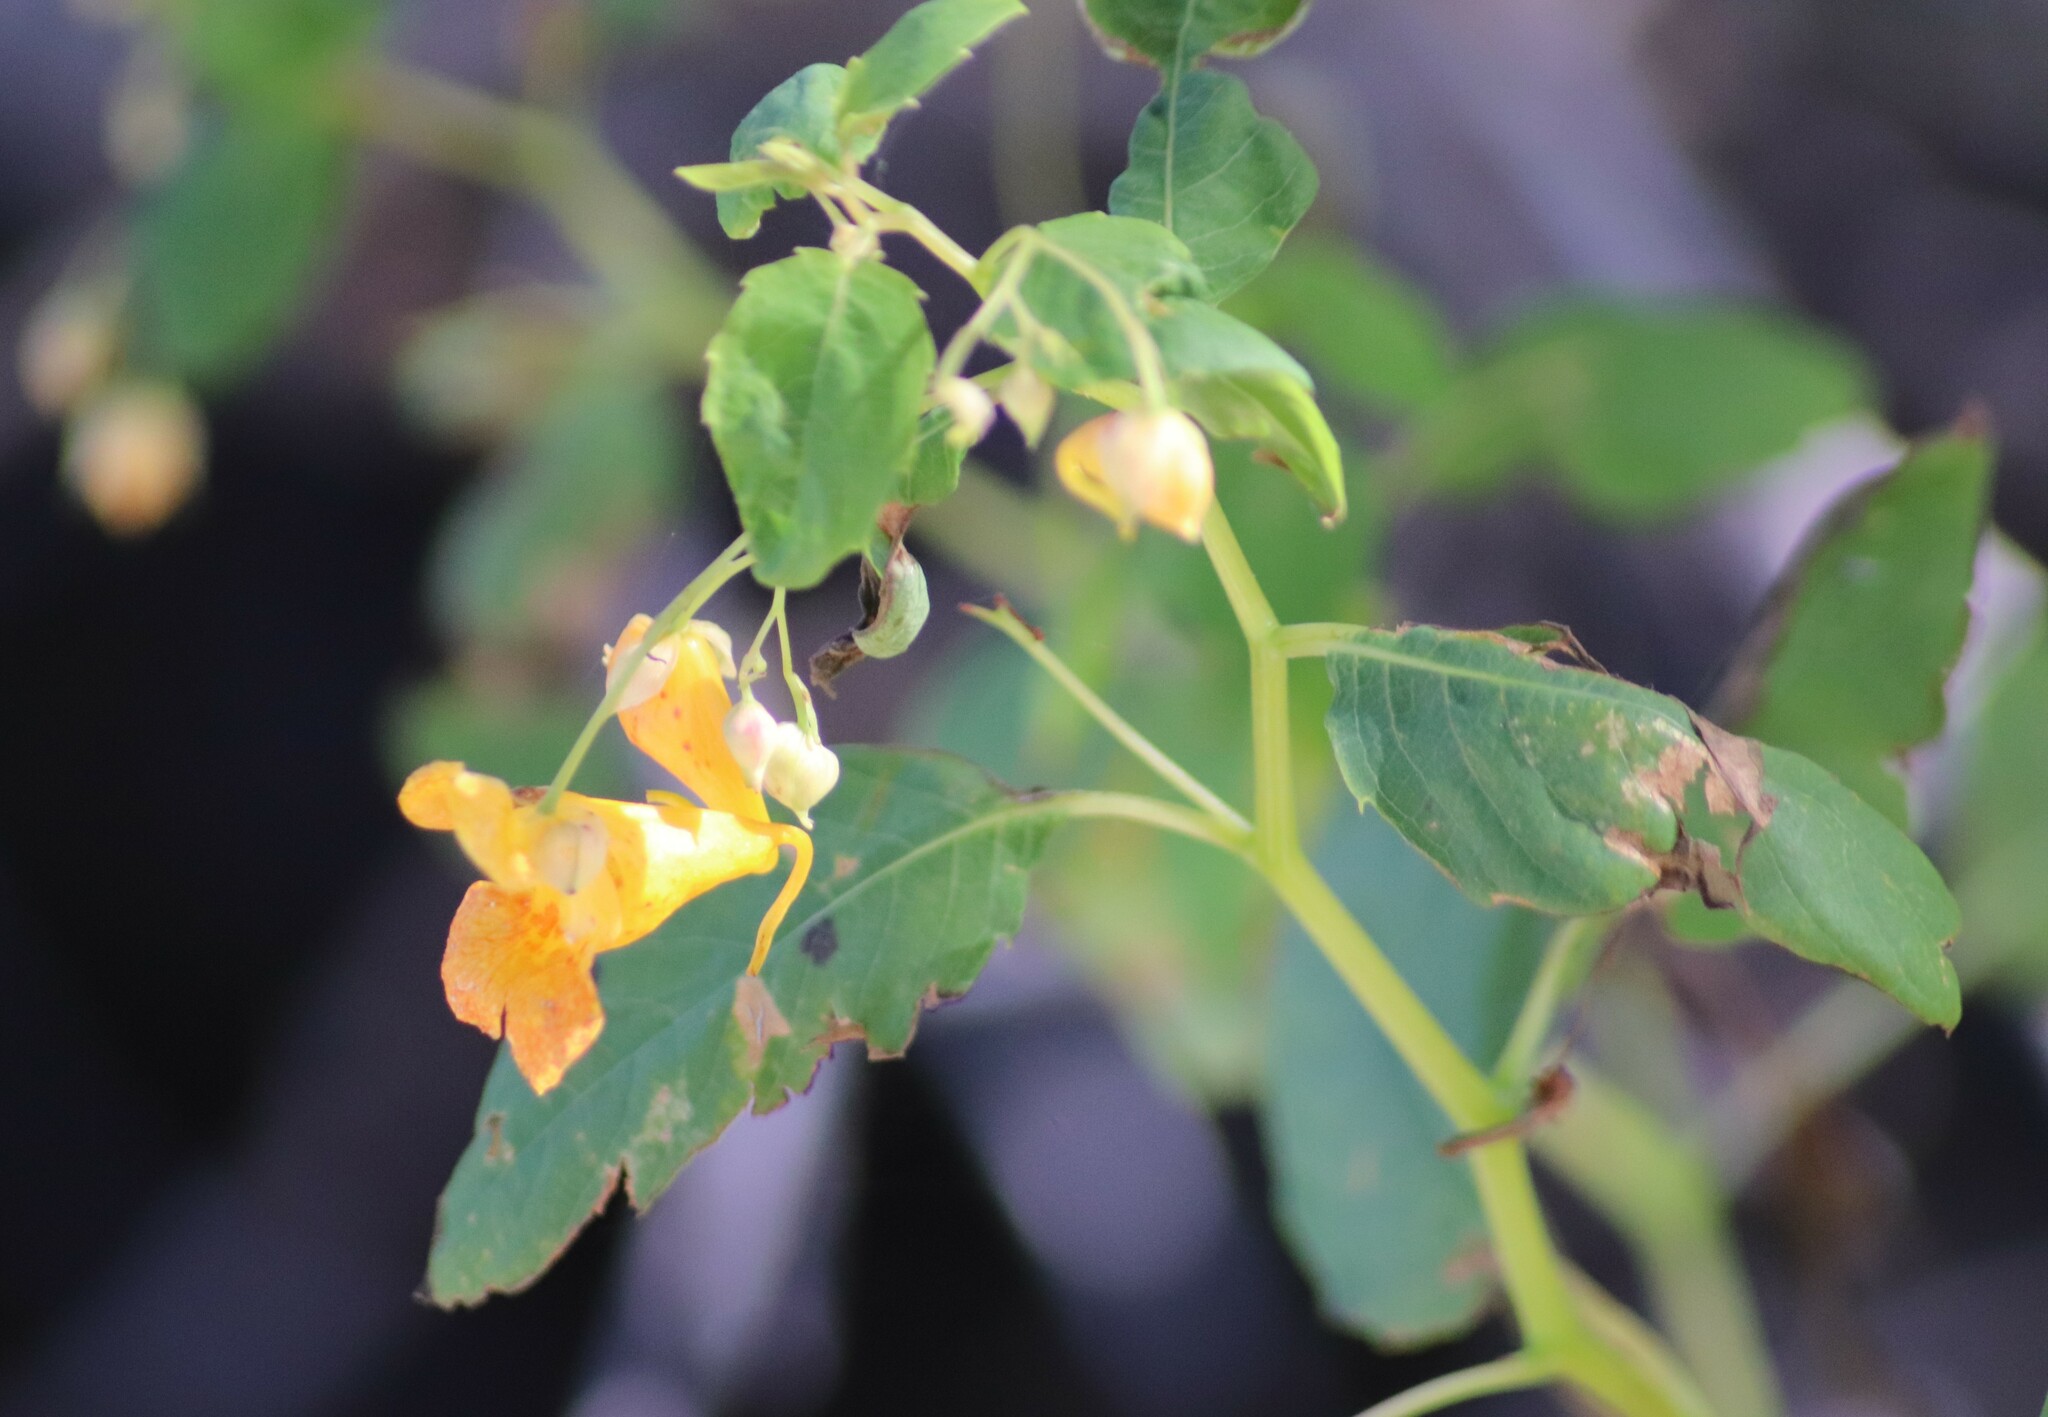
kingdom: Plantae
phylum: Tracheophyta
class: Magnoliopsida
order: Ericales
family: Balsaminaceae
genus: Impatiens
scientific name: Impatiens capensis
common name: Orange balsam
